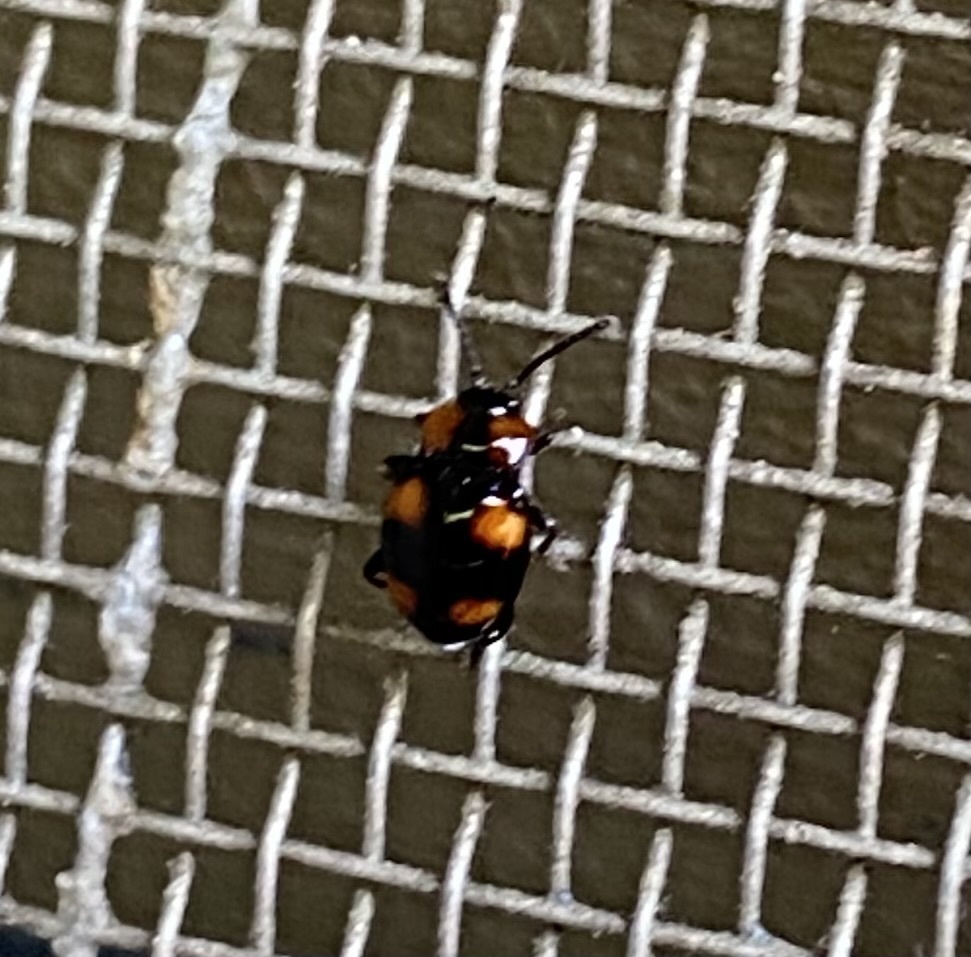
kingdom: Animalia
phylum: Arthropoda
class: Insecta
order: Coleoptera
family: Endomychidae
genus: Mycetina
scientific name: Mycetina perpulchra
